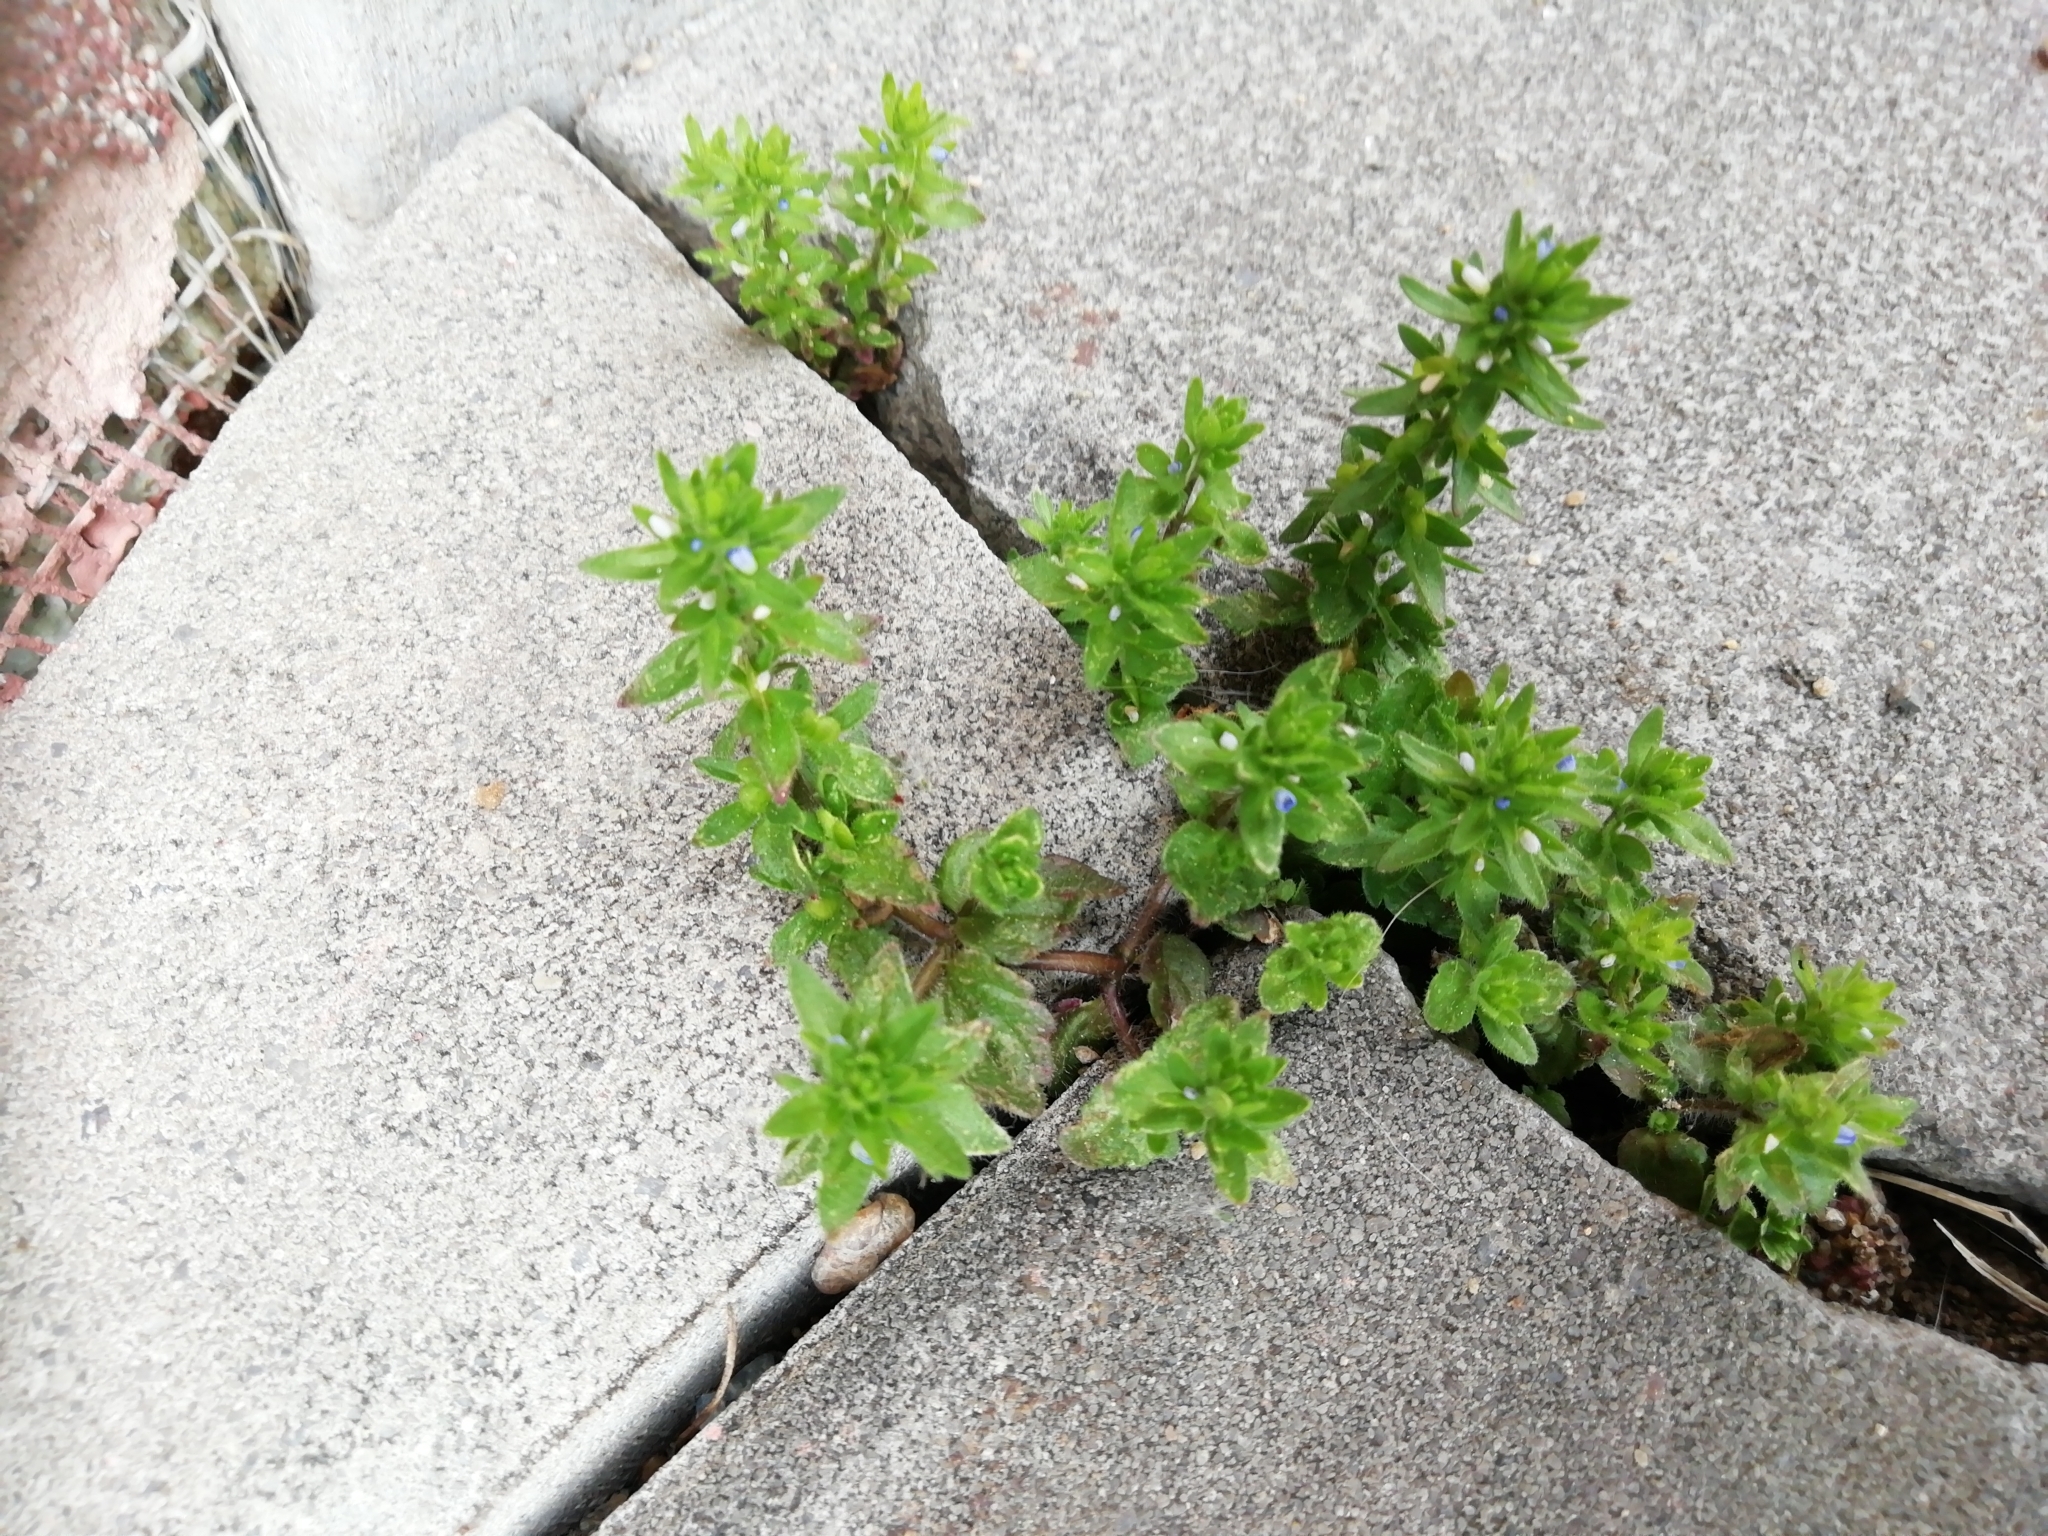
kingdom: Plantae
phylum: Tracheophyta
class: Magnoliopsida
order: Lamiales
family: Plantaginaceae
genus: Veronica
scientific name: Veronica arvensis
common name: Corn speedwell
